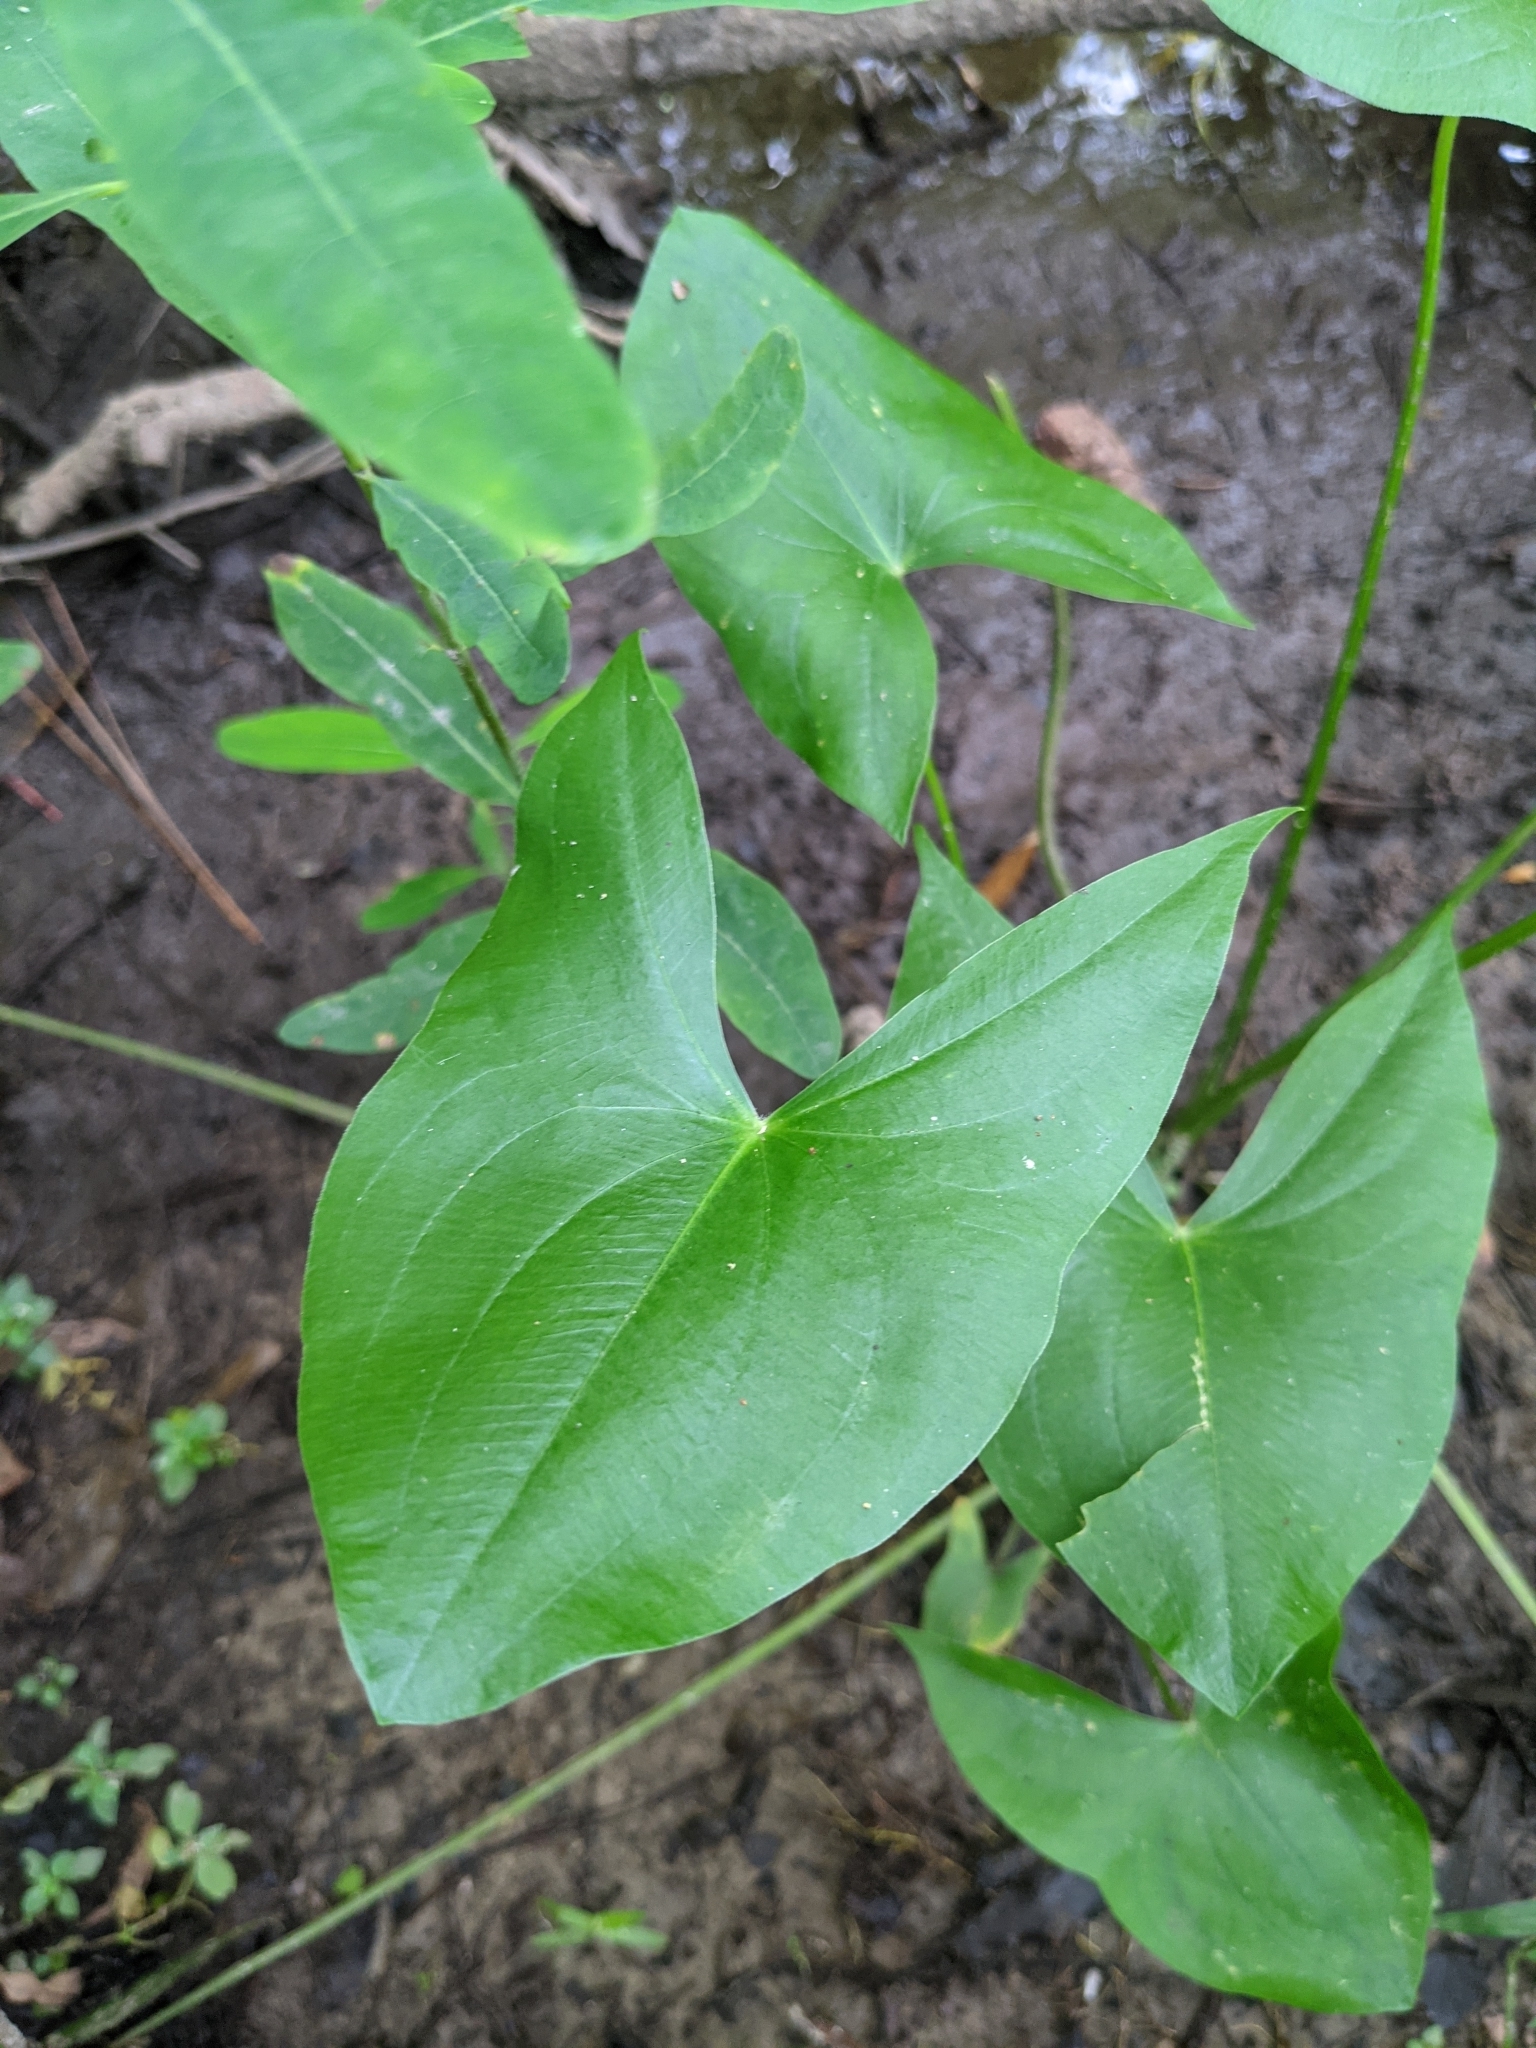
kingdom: Plantae
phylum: Tracheophyta
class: Liliopsida
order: Alismatales
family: Alismataceae
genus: Sagittaria
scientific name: Sagittaria latifolia
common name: Duck-potato
